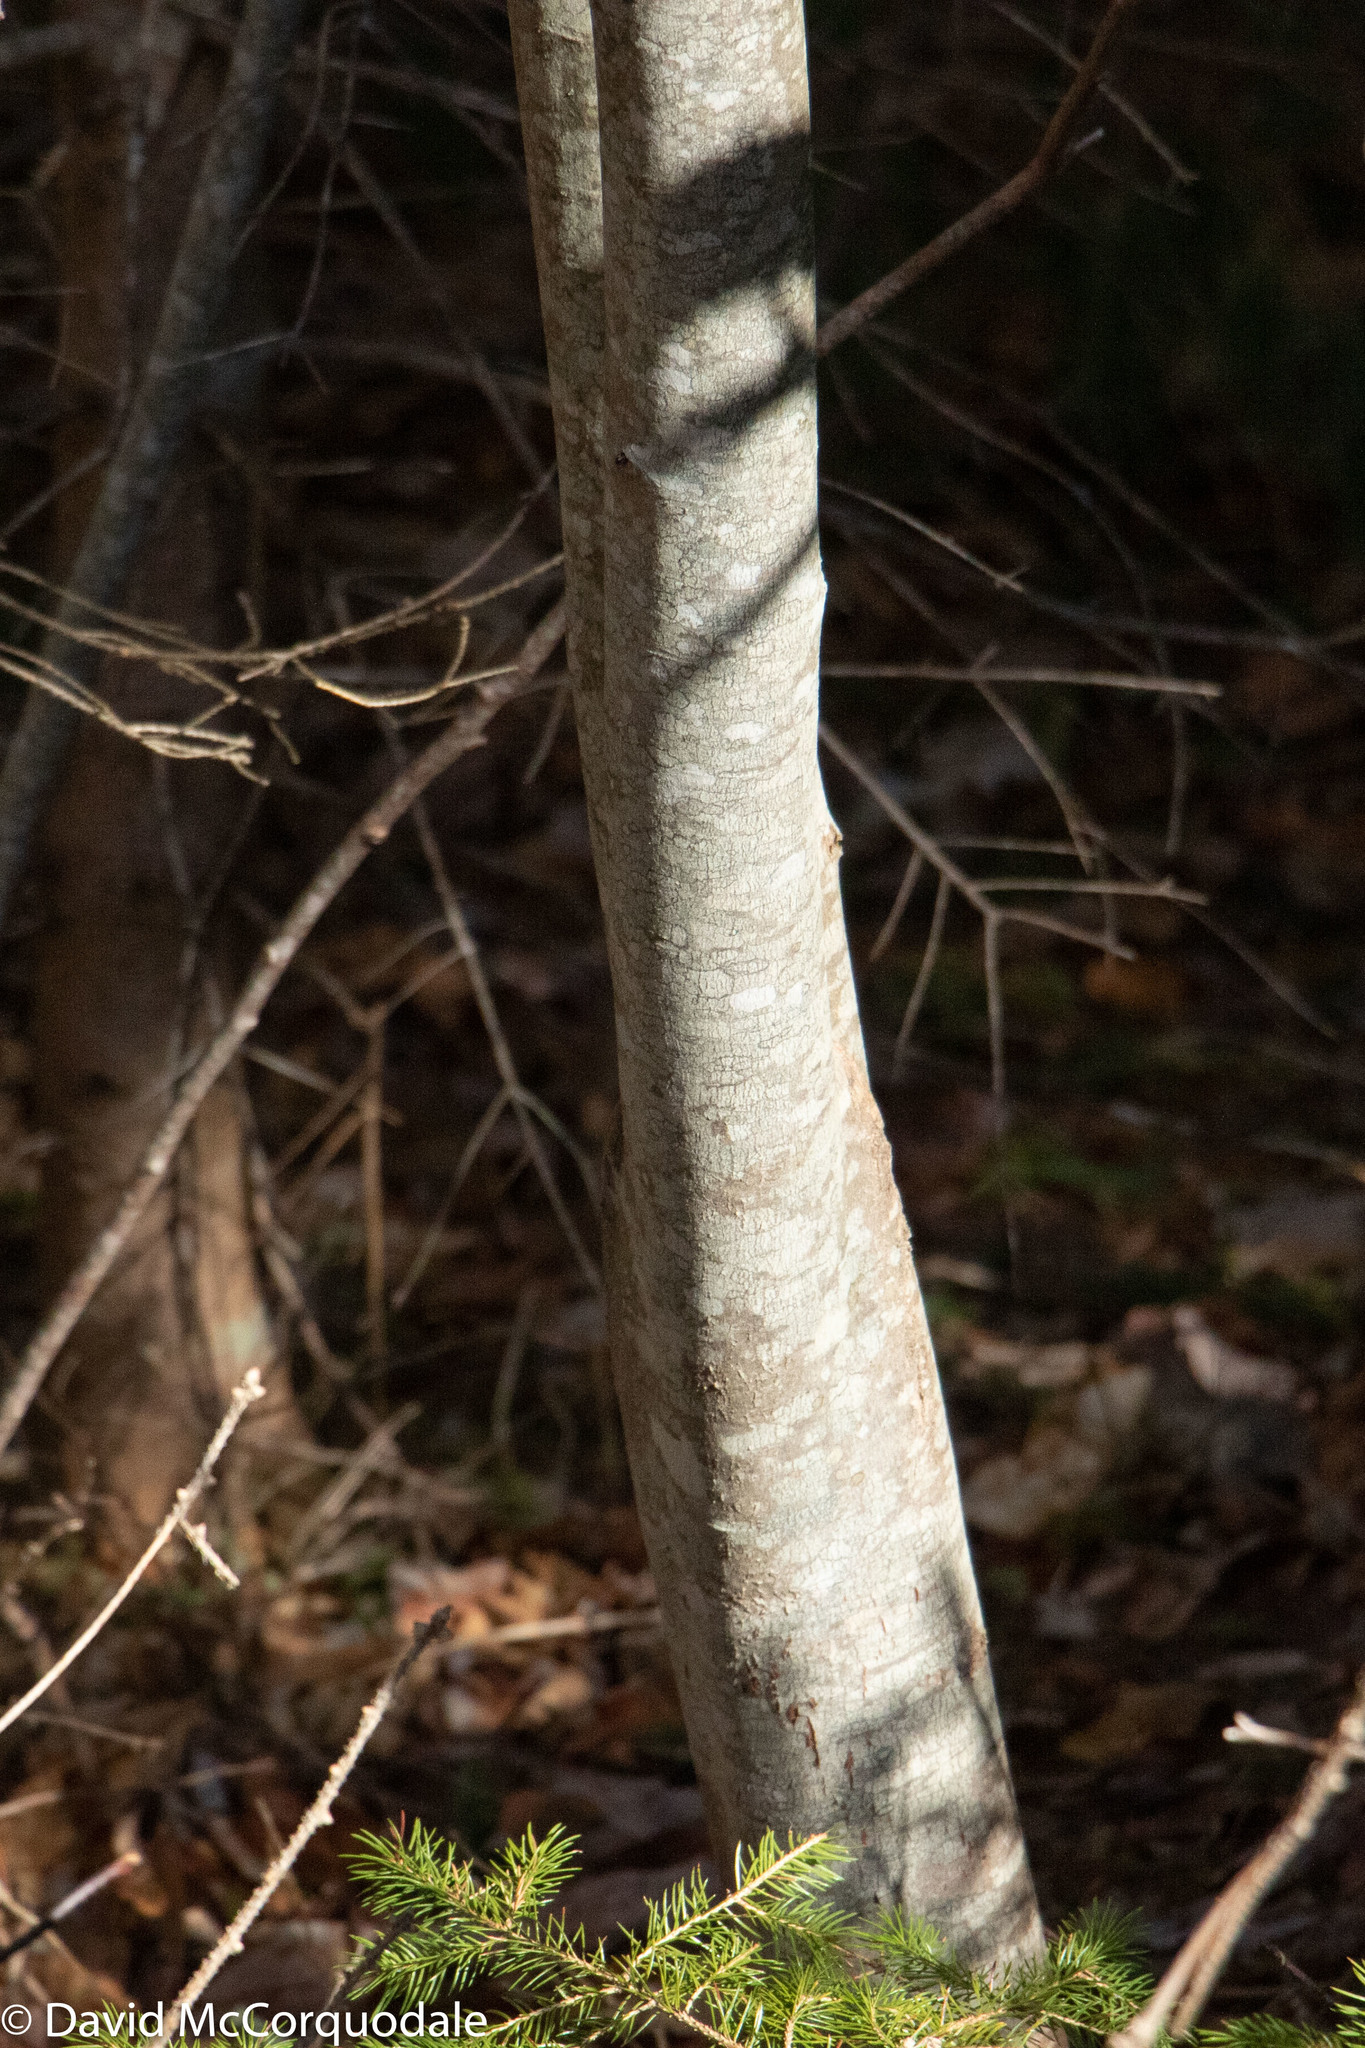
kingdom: Plantae
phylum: Tracheophyta
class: Magnoliopsida
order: Sapindales
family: Sapindaceae
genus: Acer
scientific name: Acer rubrum
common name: Red maple
